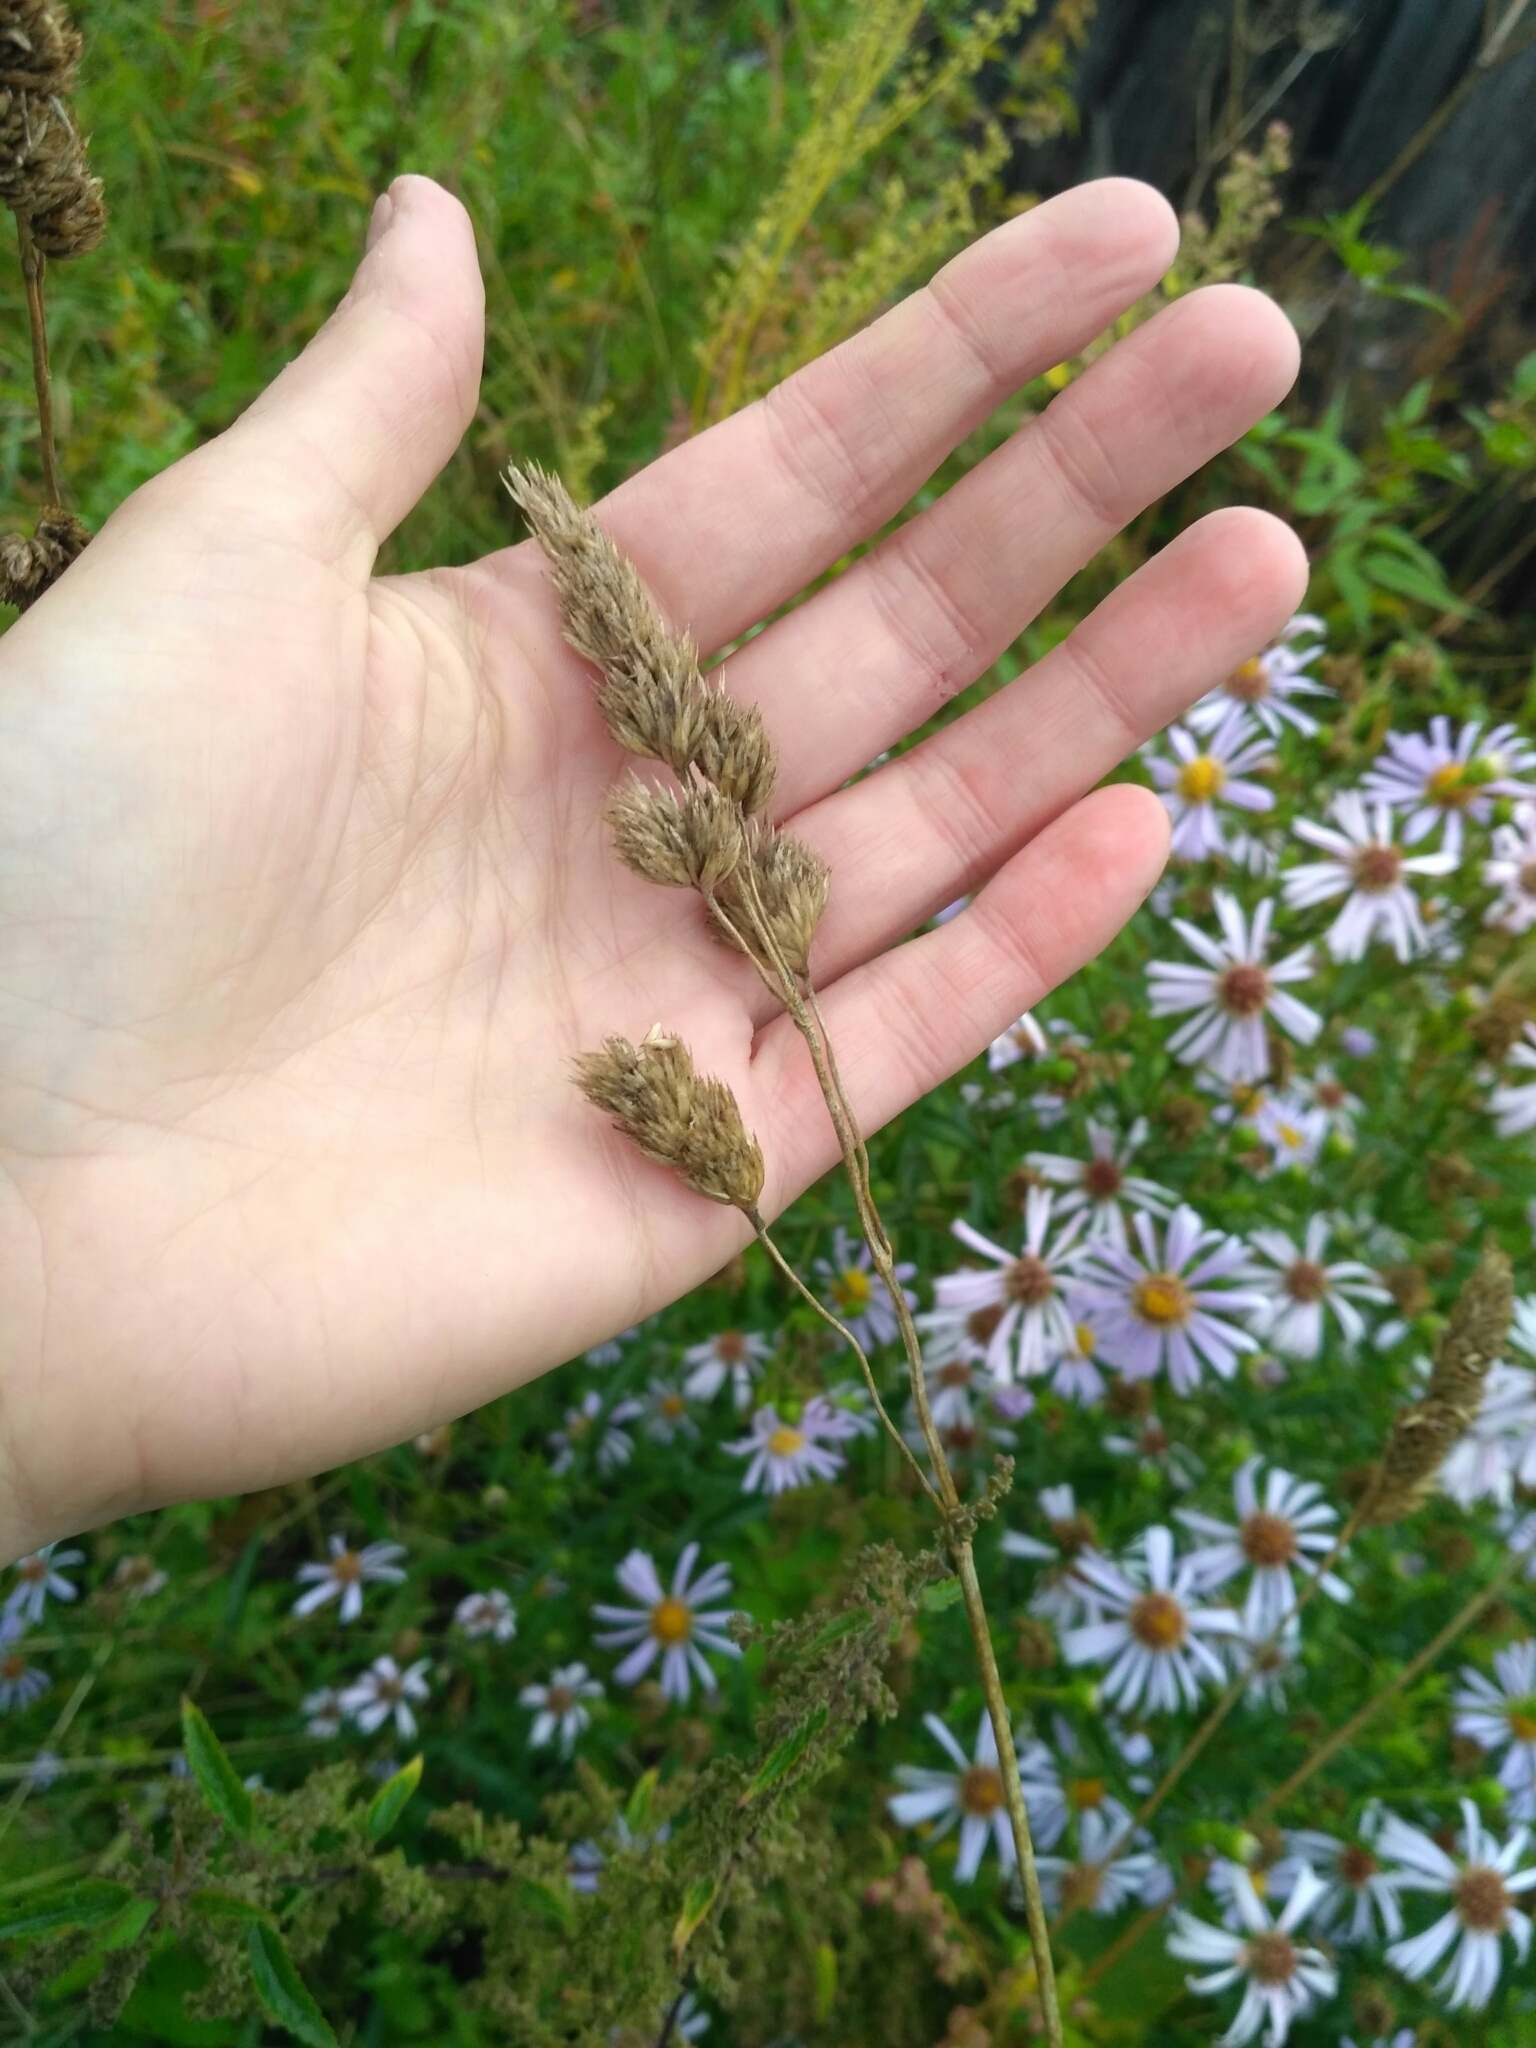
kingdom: Plantae
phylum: Tracheophyta
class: Liliopsida
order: Poales
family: Poaceae
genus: Dactylis
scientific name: Dactylis glomerata
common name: Orchardgrass
